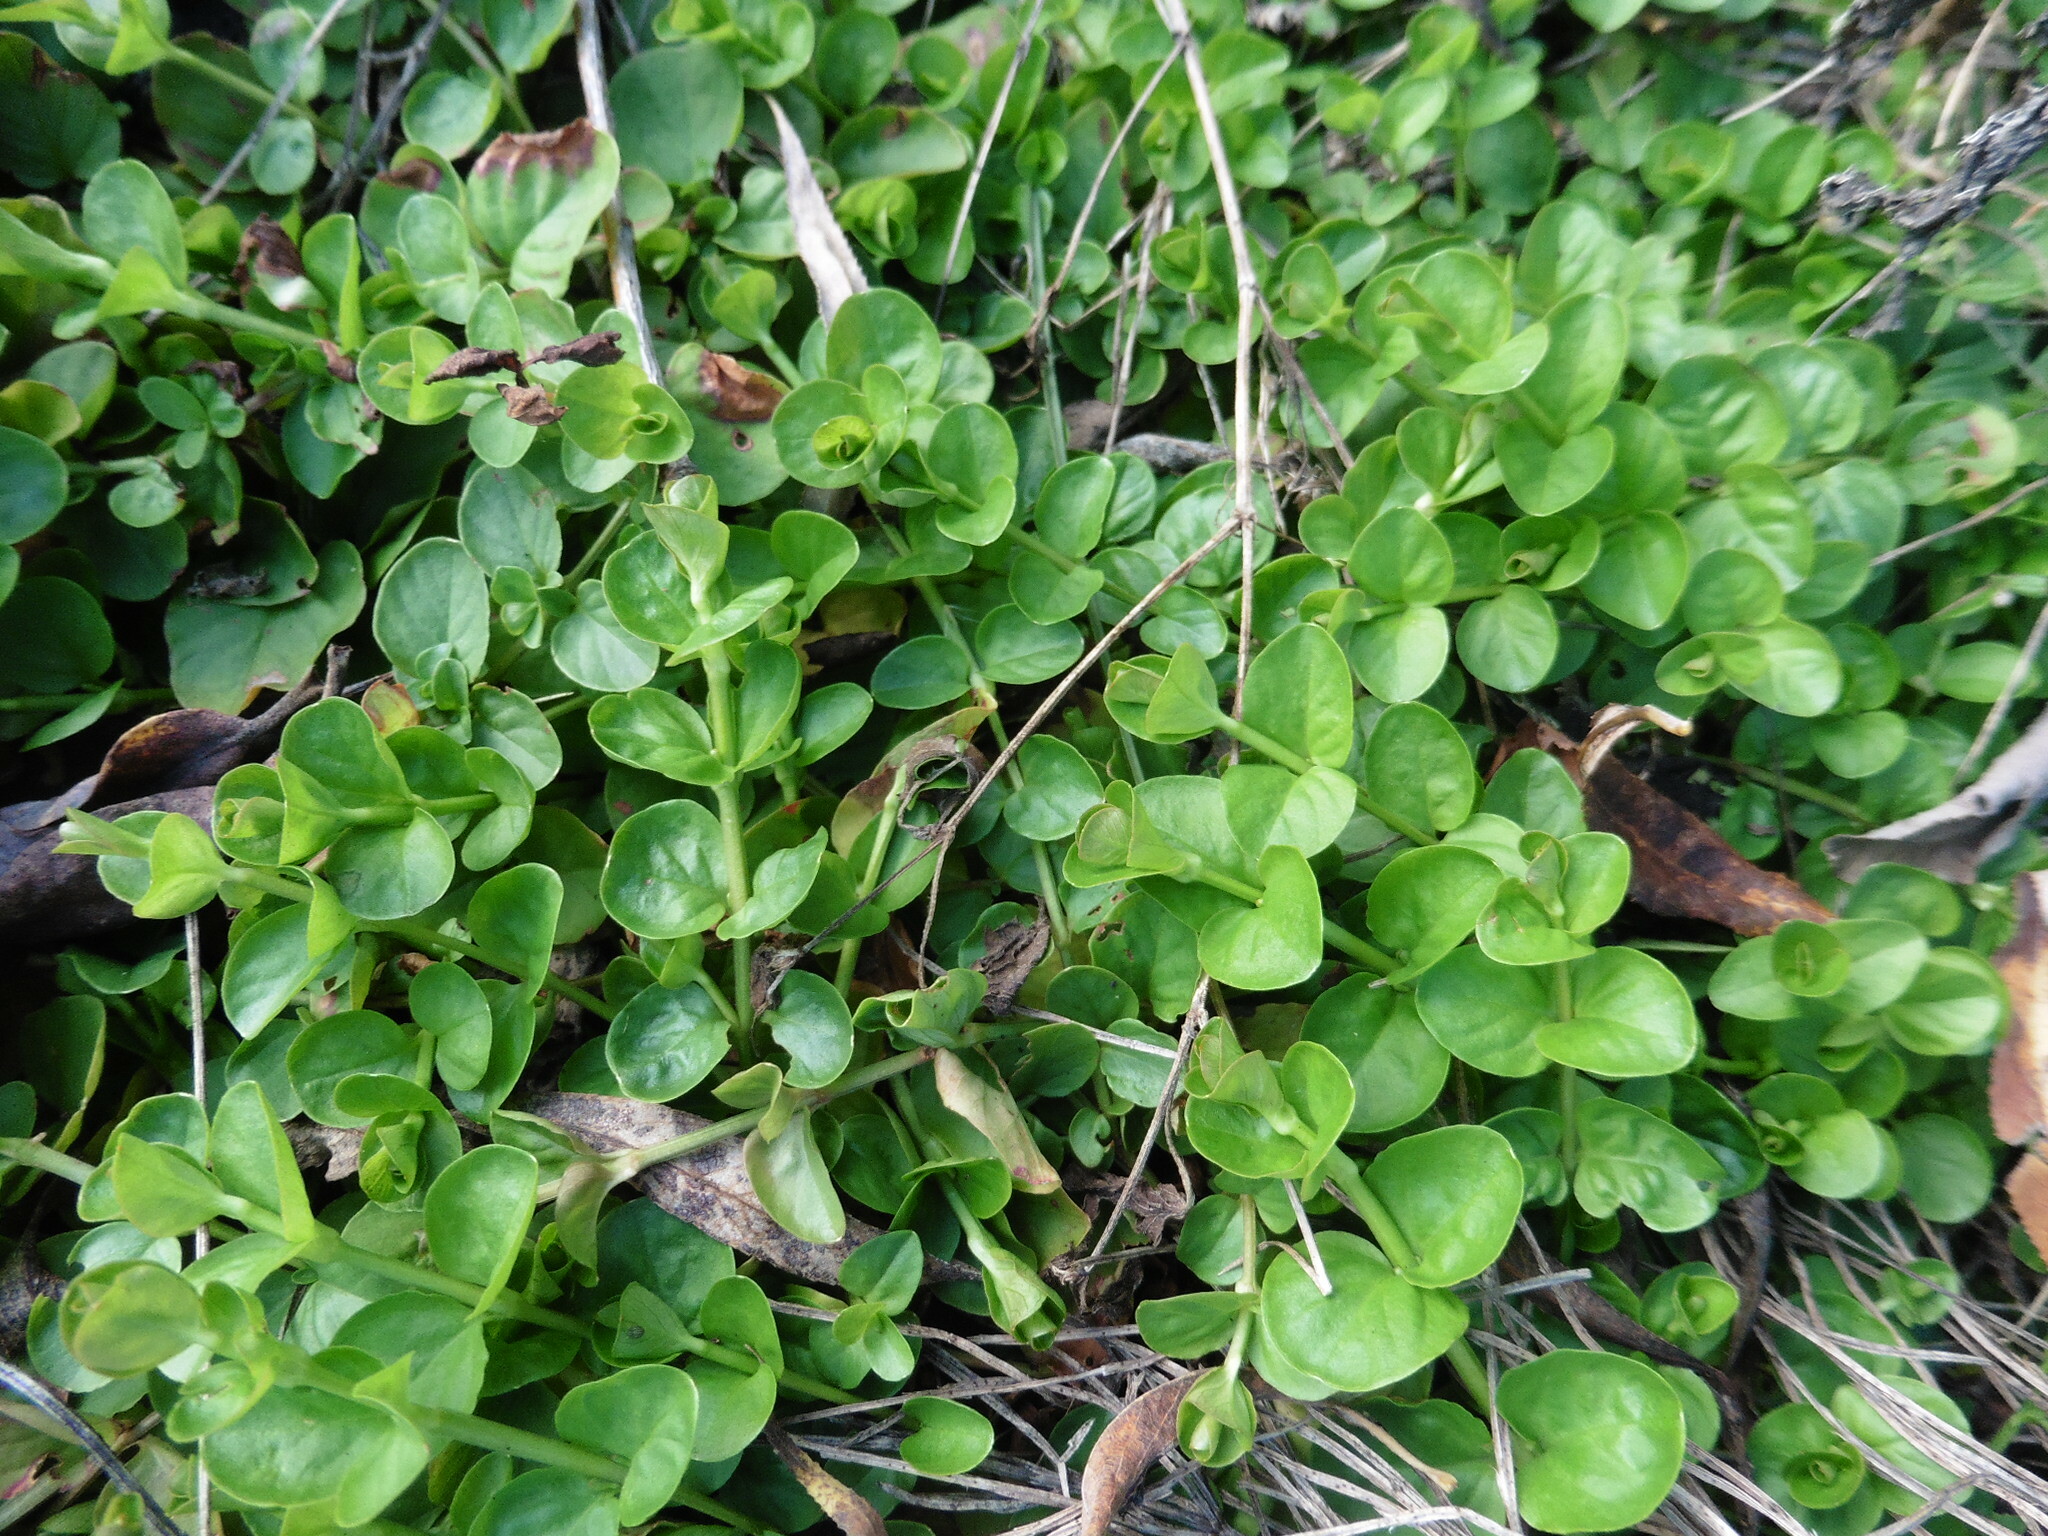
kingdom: Plantae
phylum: Tracheophyta
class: Magnoliopsida
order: Ericales
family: Primulaceae
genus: Lysimachia
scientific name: Lysimachia nummularia
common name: Moneywort
